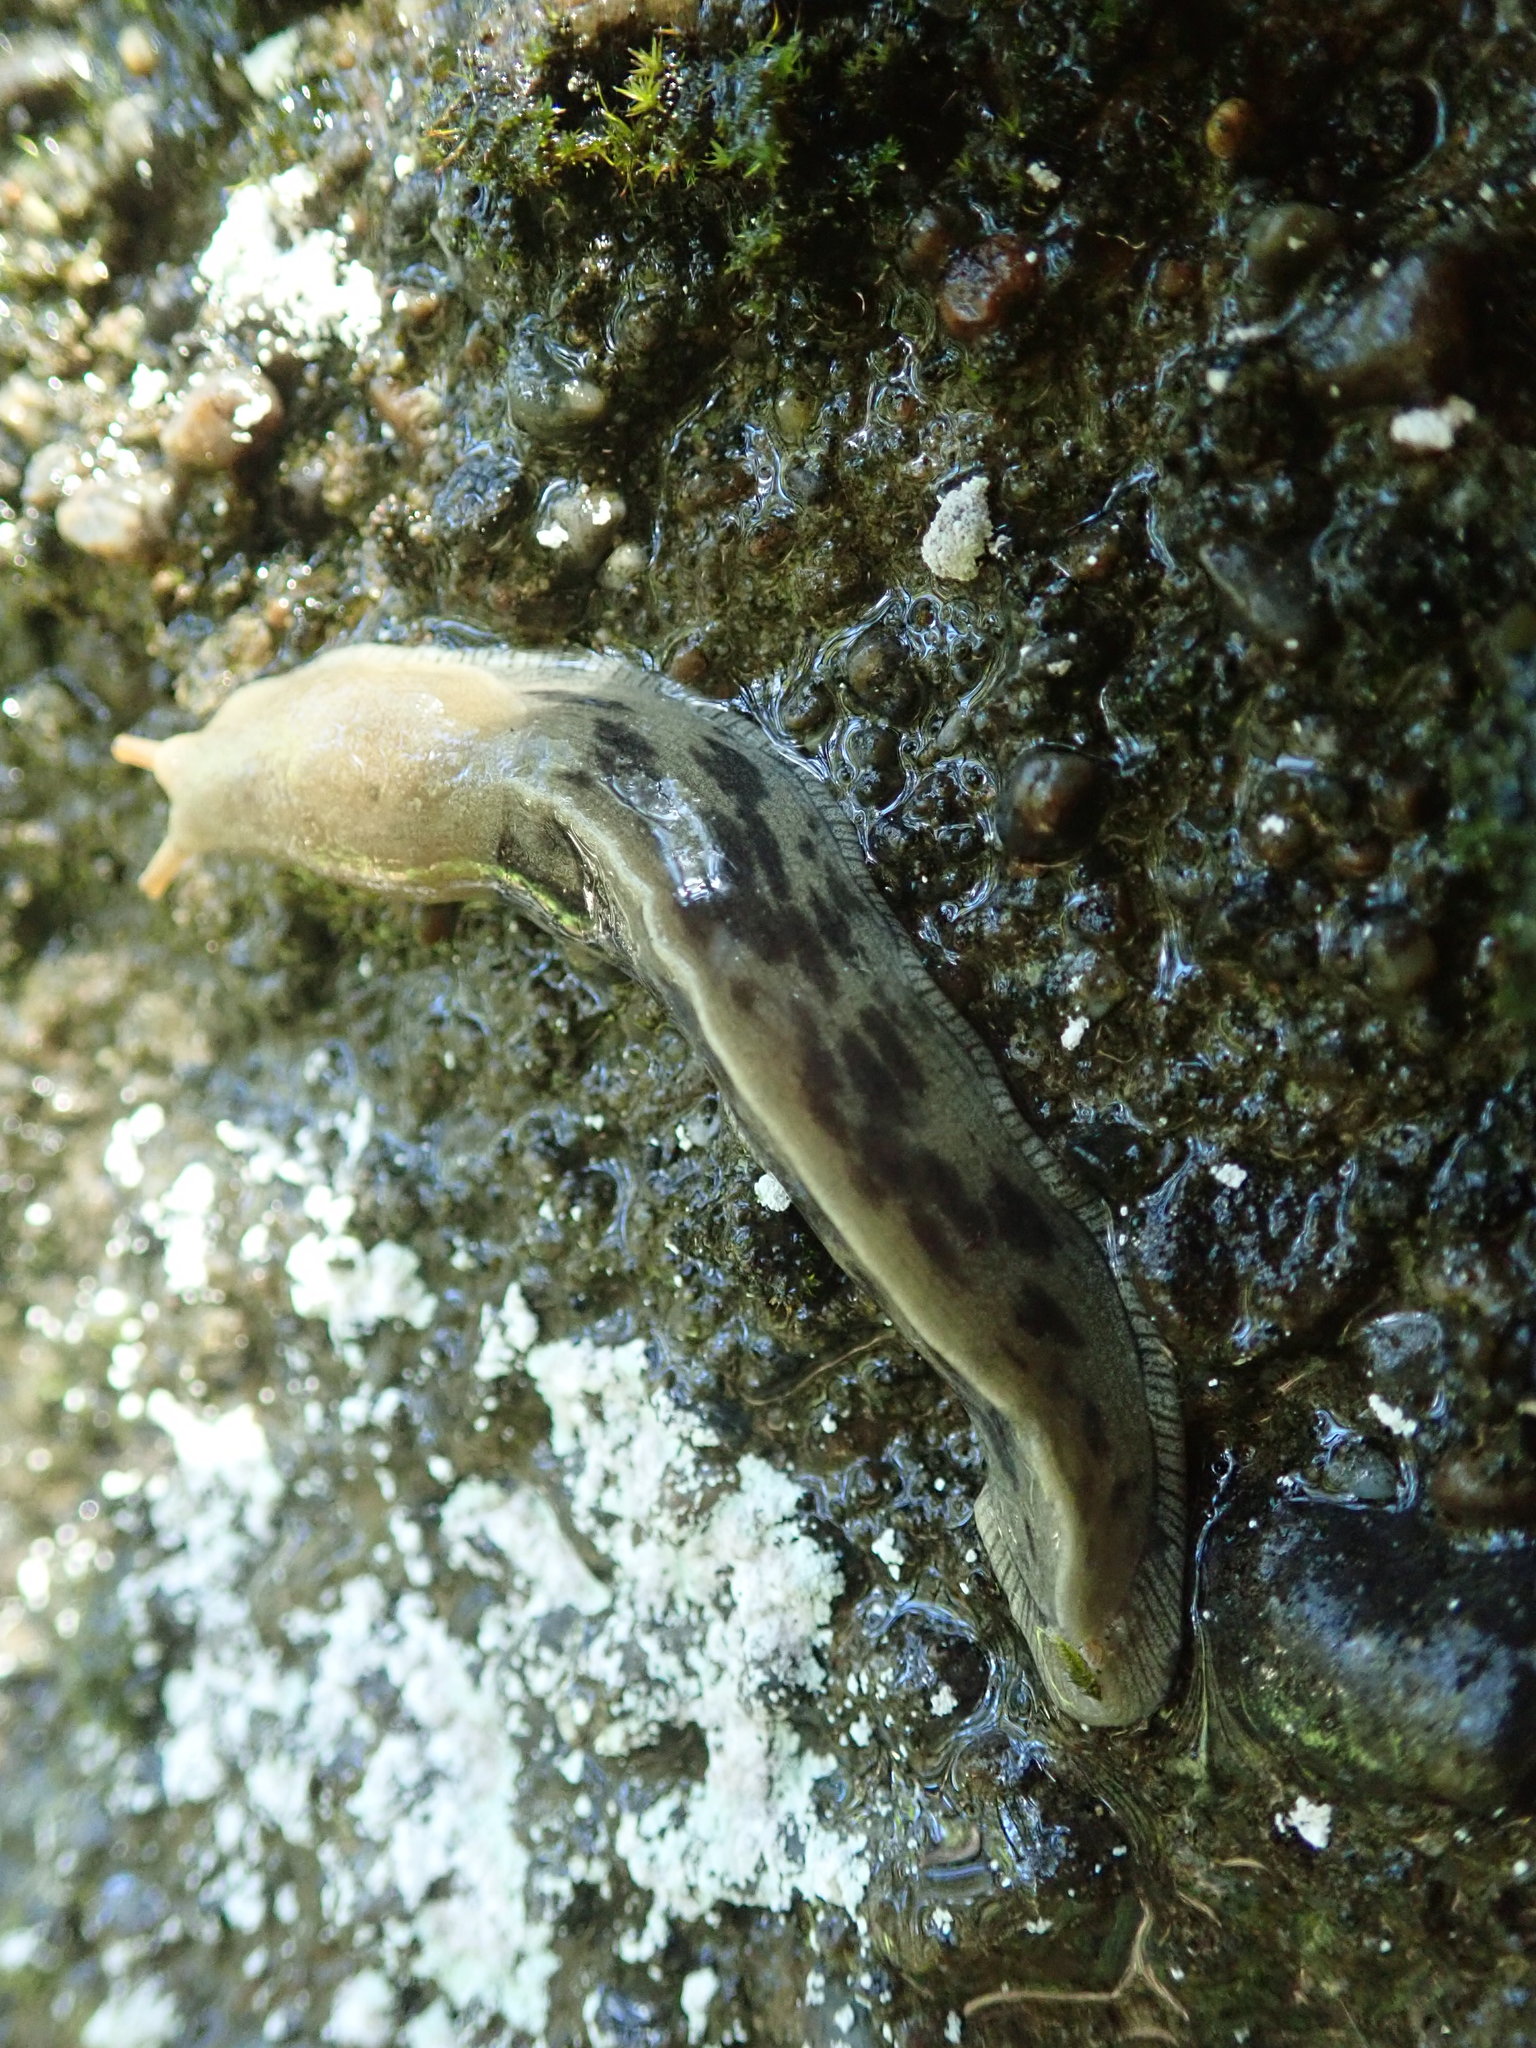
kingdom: Animalia
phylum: Mollusca
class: Gastropoda
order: Stylommatophora
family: Ariolimacidae
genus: Ariolimax
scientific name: Ariolimax columbianus
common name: Pacific banana slug
